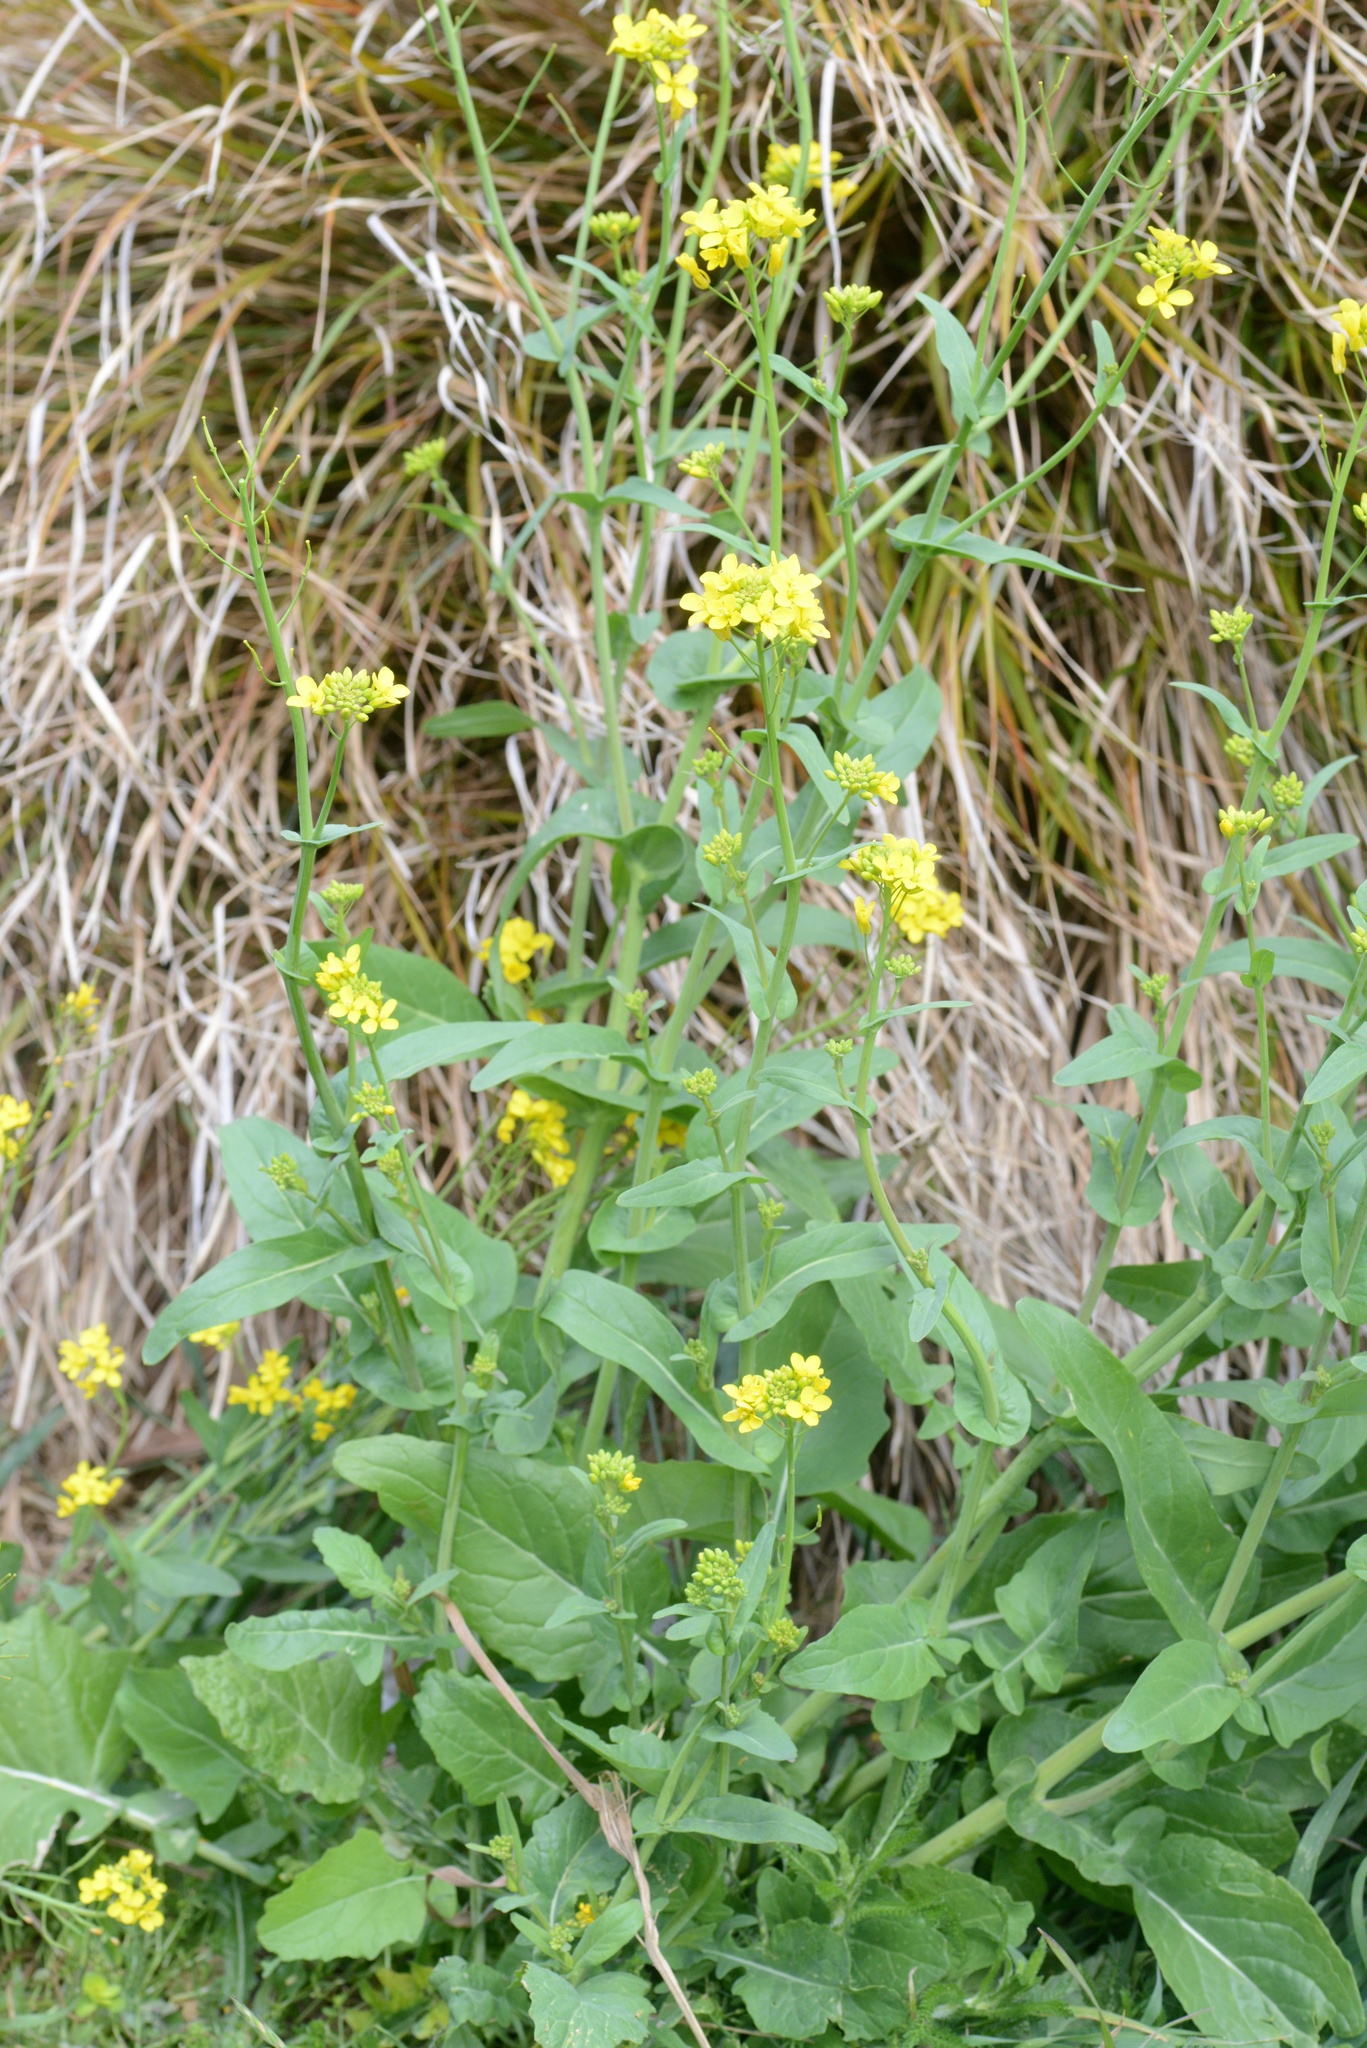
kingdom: Plantae
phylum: Tracheophyta
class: Magnoliopsida
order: Brassicales
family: Brassicaceae
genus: Brassica
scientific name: Brassica rapa
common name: Field mustard
